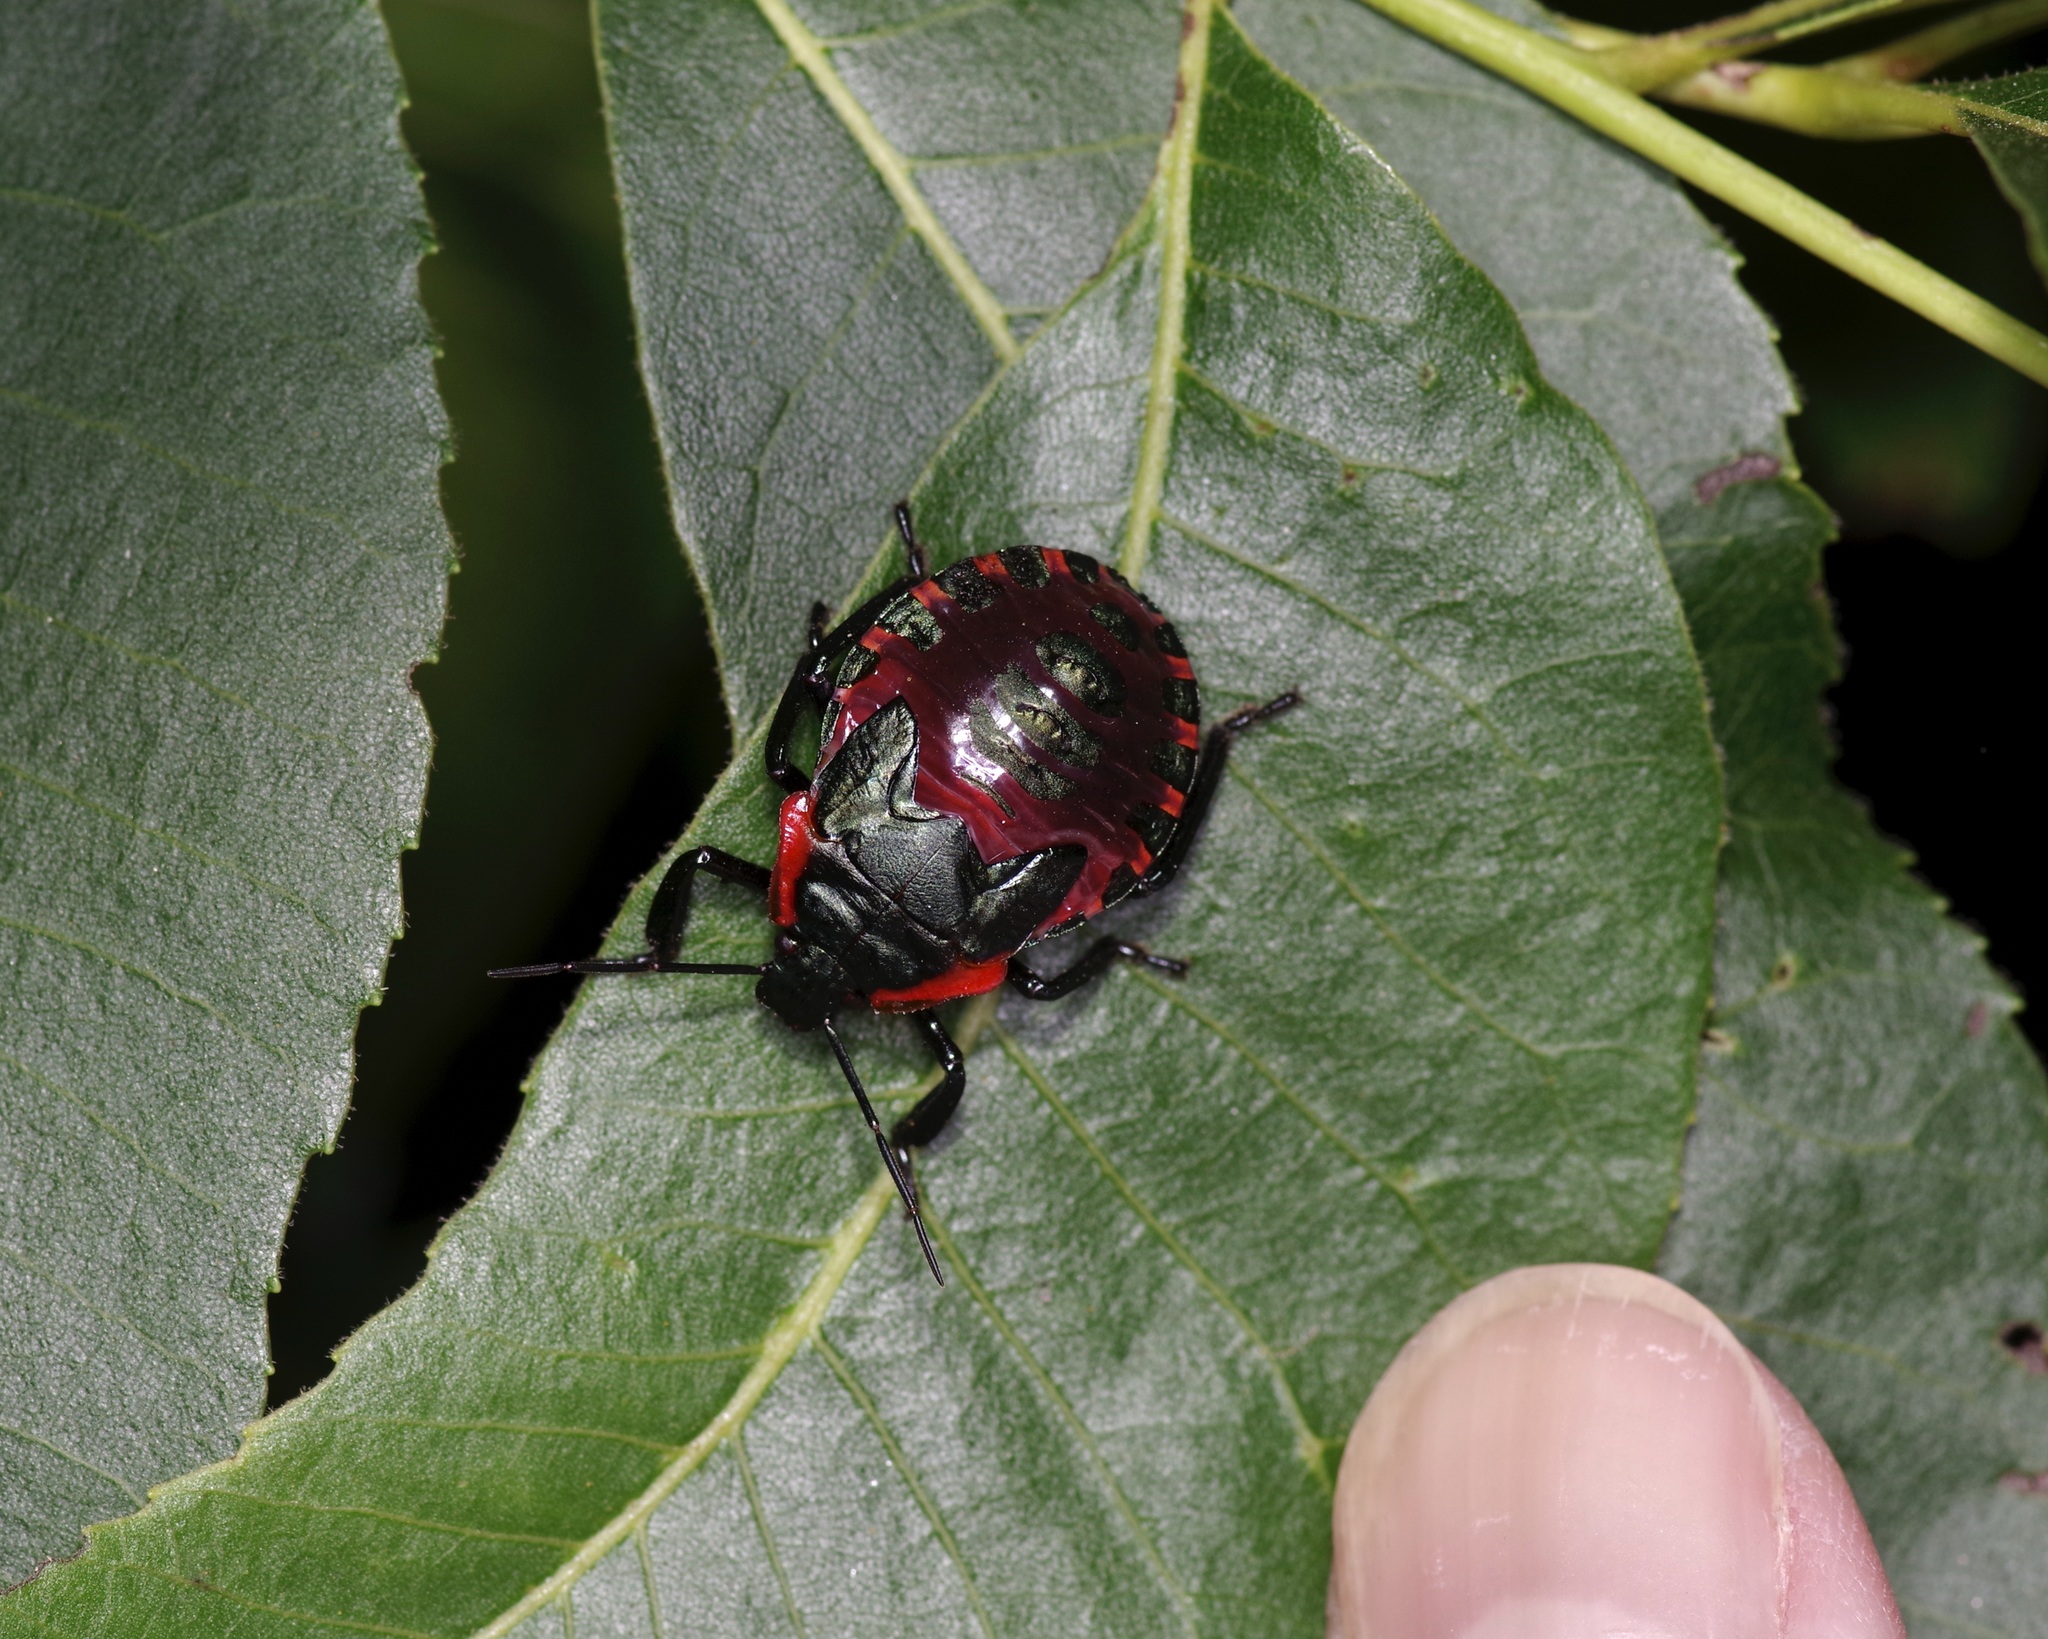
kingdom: Animalia
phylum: Arthropoda
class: Insecta
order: Hemiptera
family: Pentatomidae
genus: Alcaeorrhynchus
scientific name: Alcaeorrhynchus grandis
